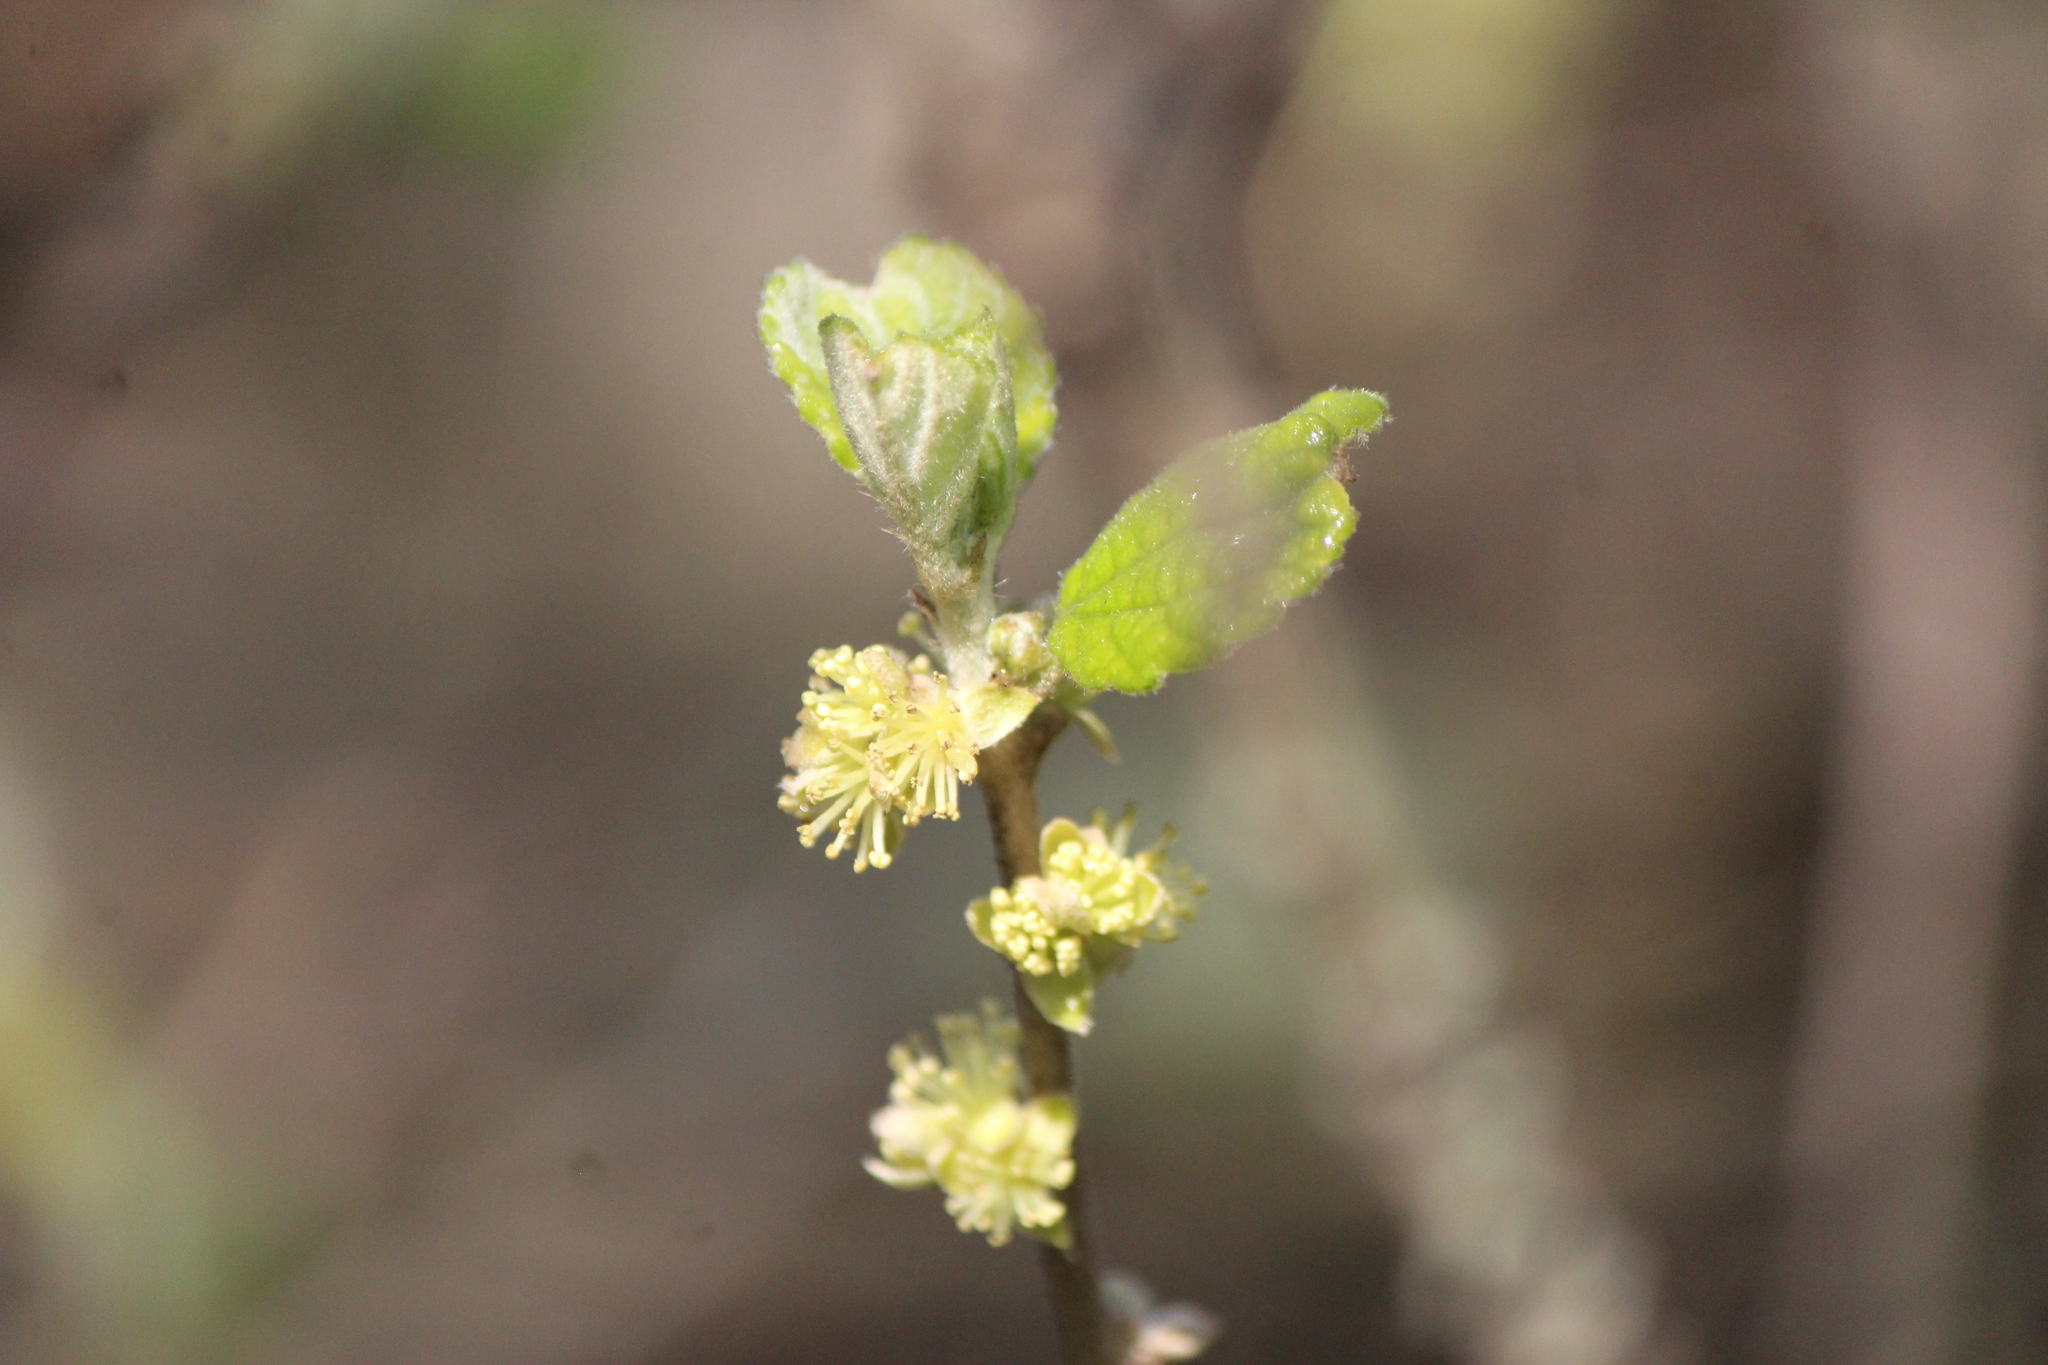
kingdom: Plantae
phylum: Tracheophyta
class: Magnoliopsida
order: Malpighiales
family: Euphorbiaceae
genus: Bernardia
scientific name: Bernardia mexicana
